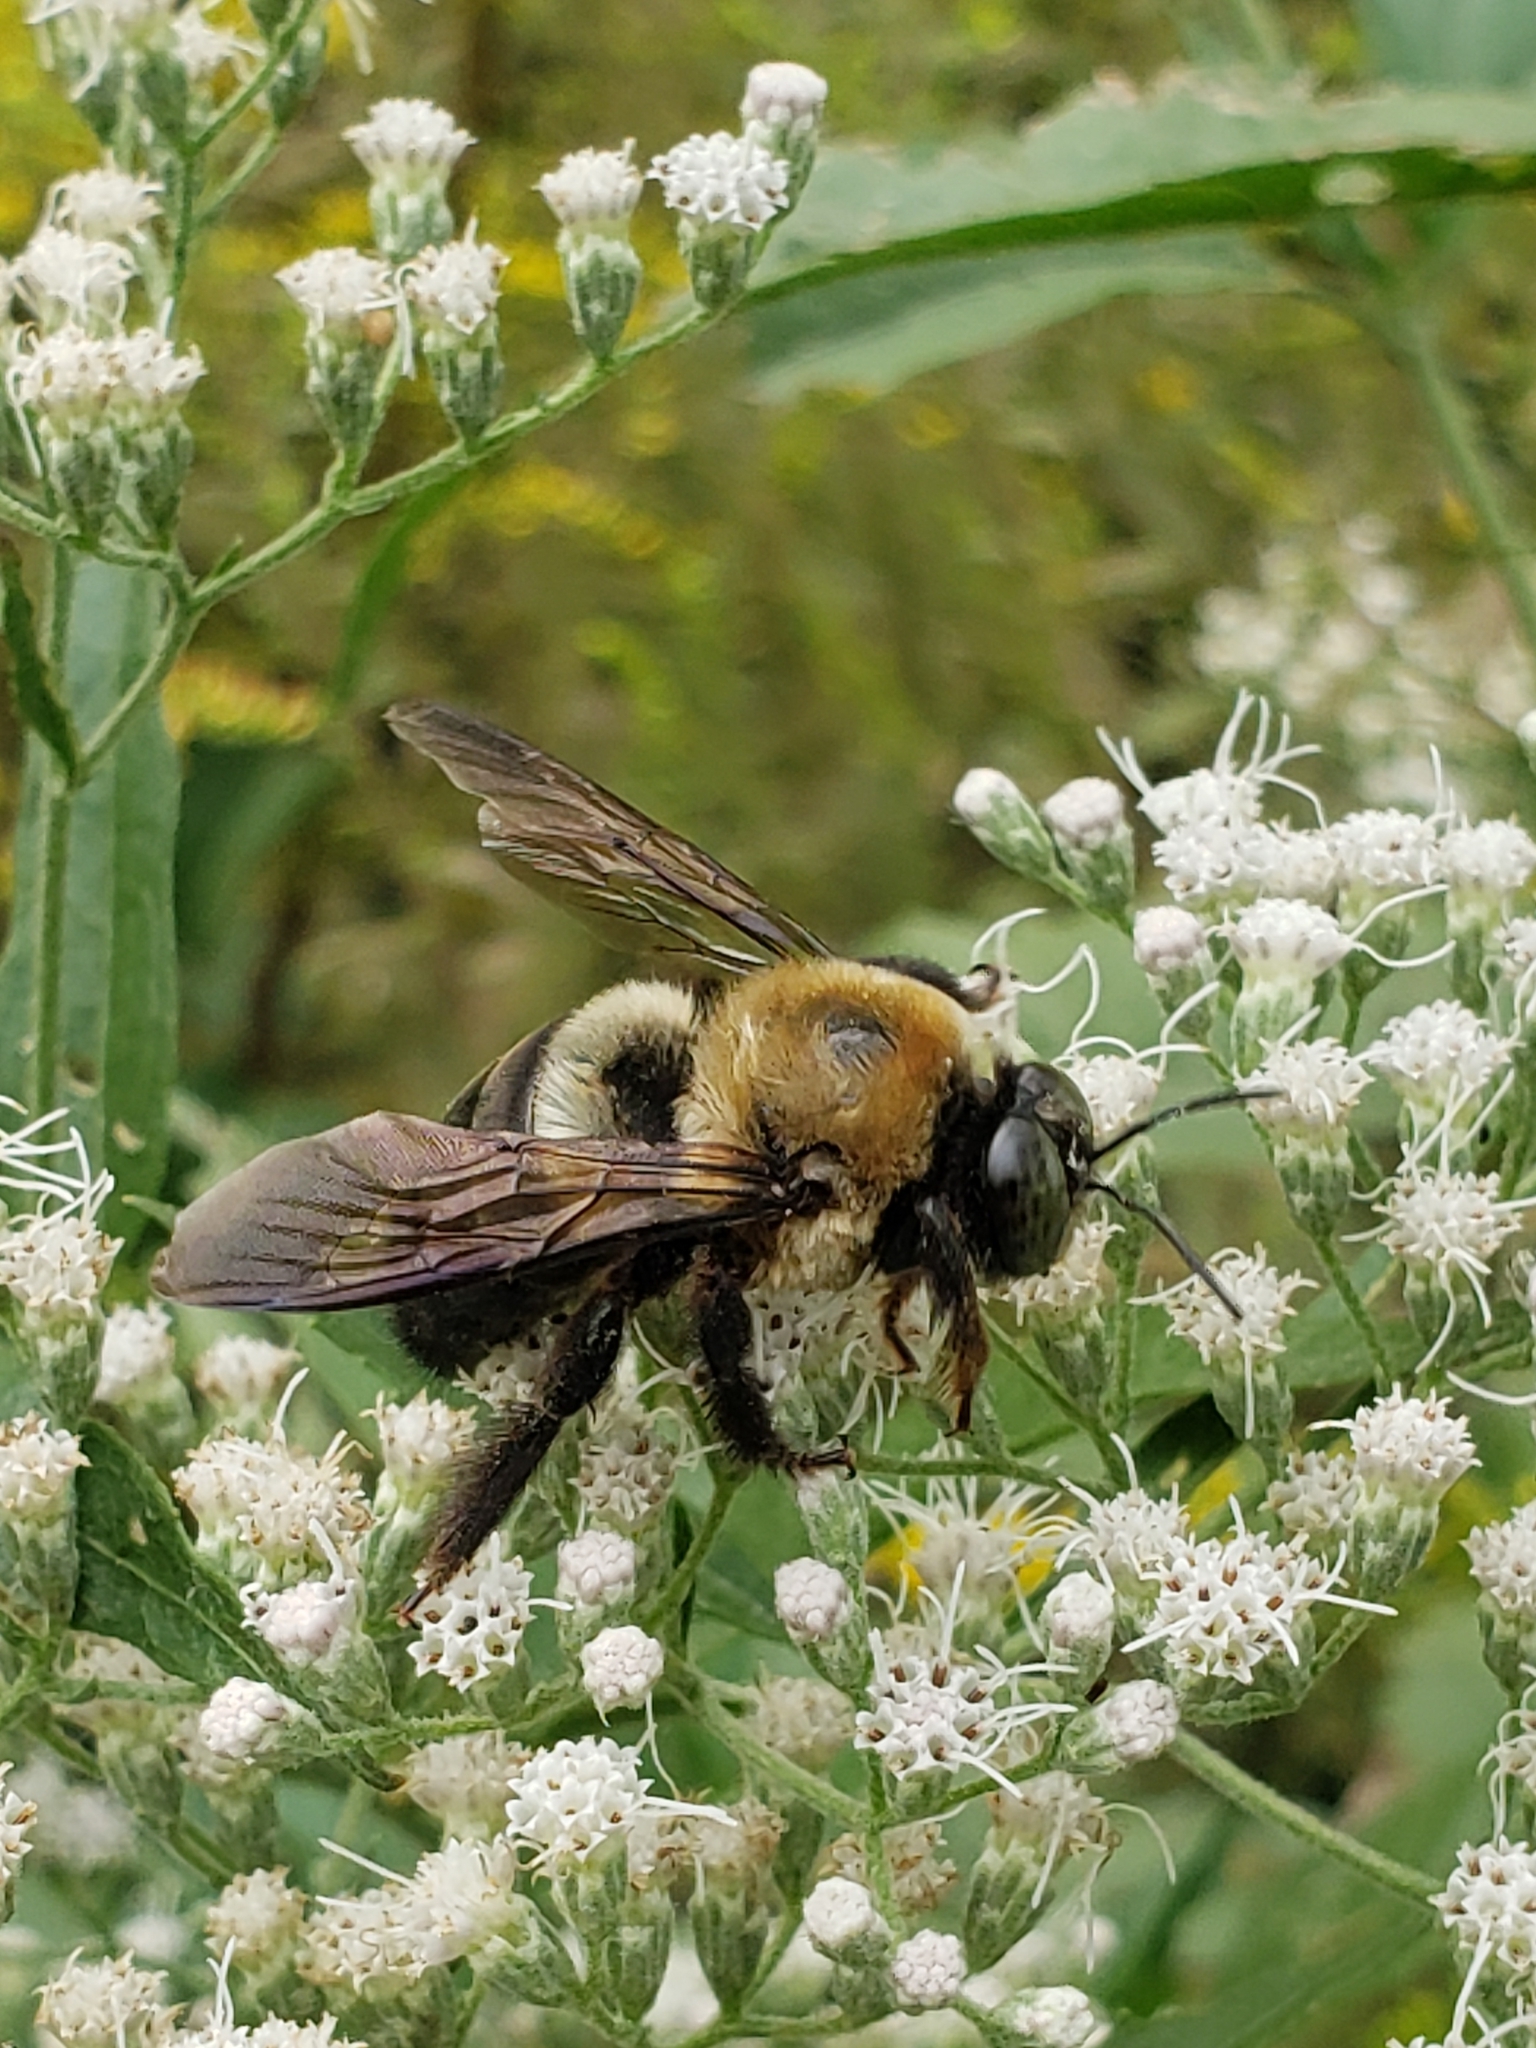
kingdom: Animalia
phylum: Arthropoda
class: Insecta
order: Hymenoptera
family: Apidae
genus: Xylocopa
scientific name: Xylocopa virginica
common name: Carpenter bee
